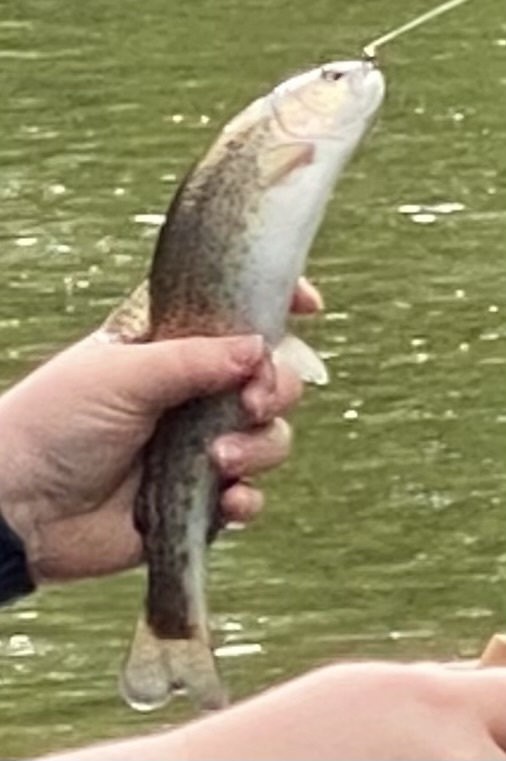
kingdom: Animalia
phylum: Chordata
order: Salmoniformes
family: Salmonidae
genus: Oncorhynchus
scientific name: Oncorhynchus mykiss
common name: Rainbow trout
